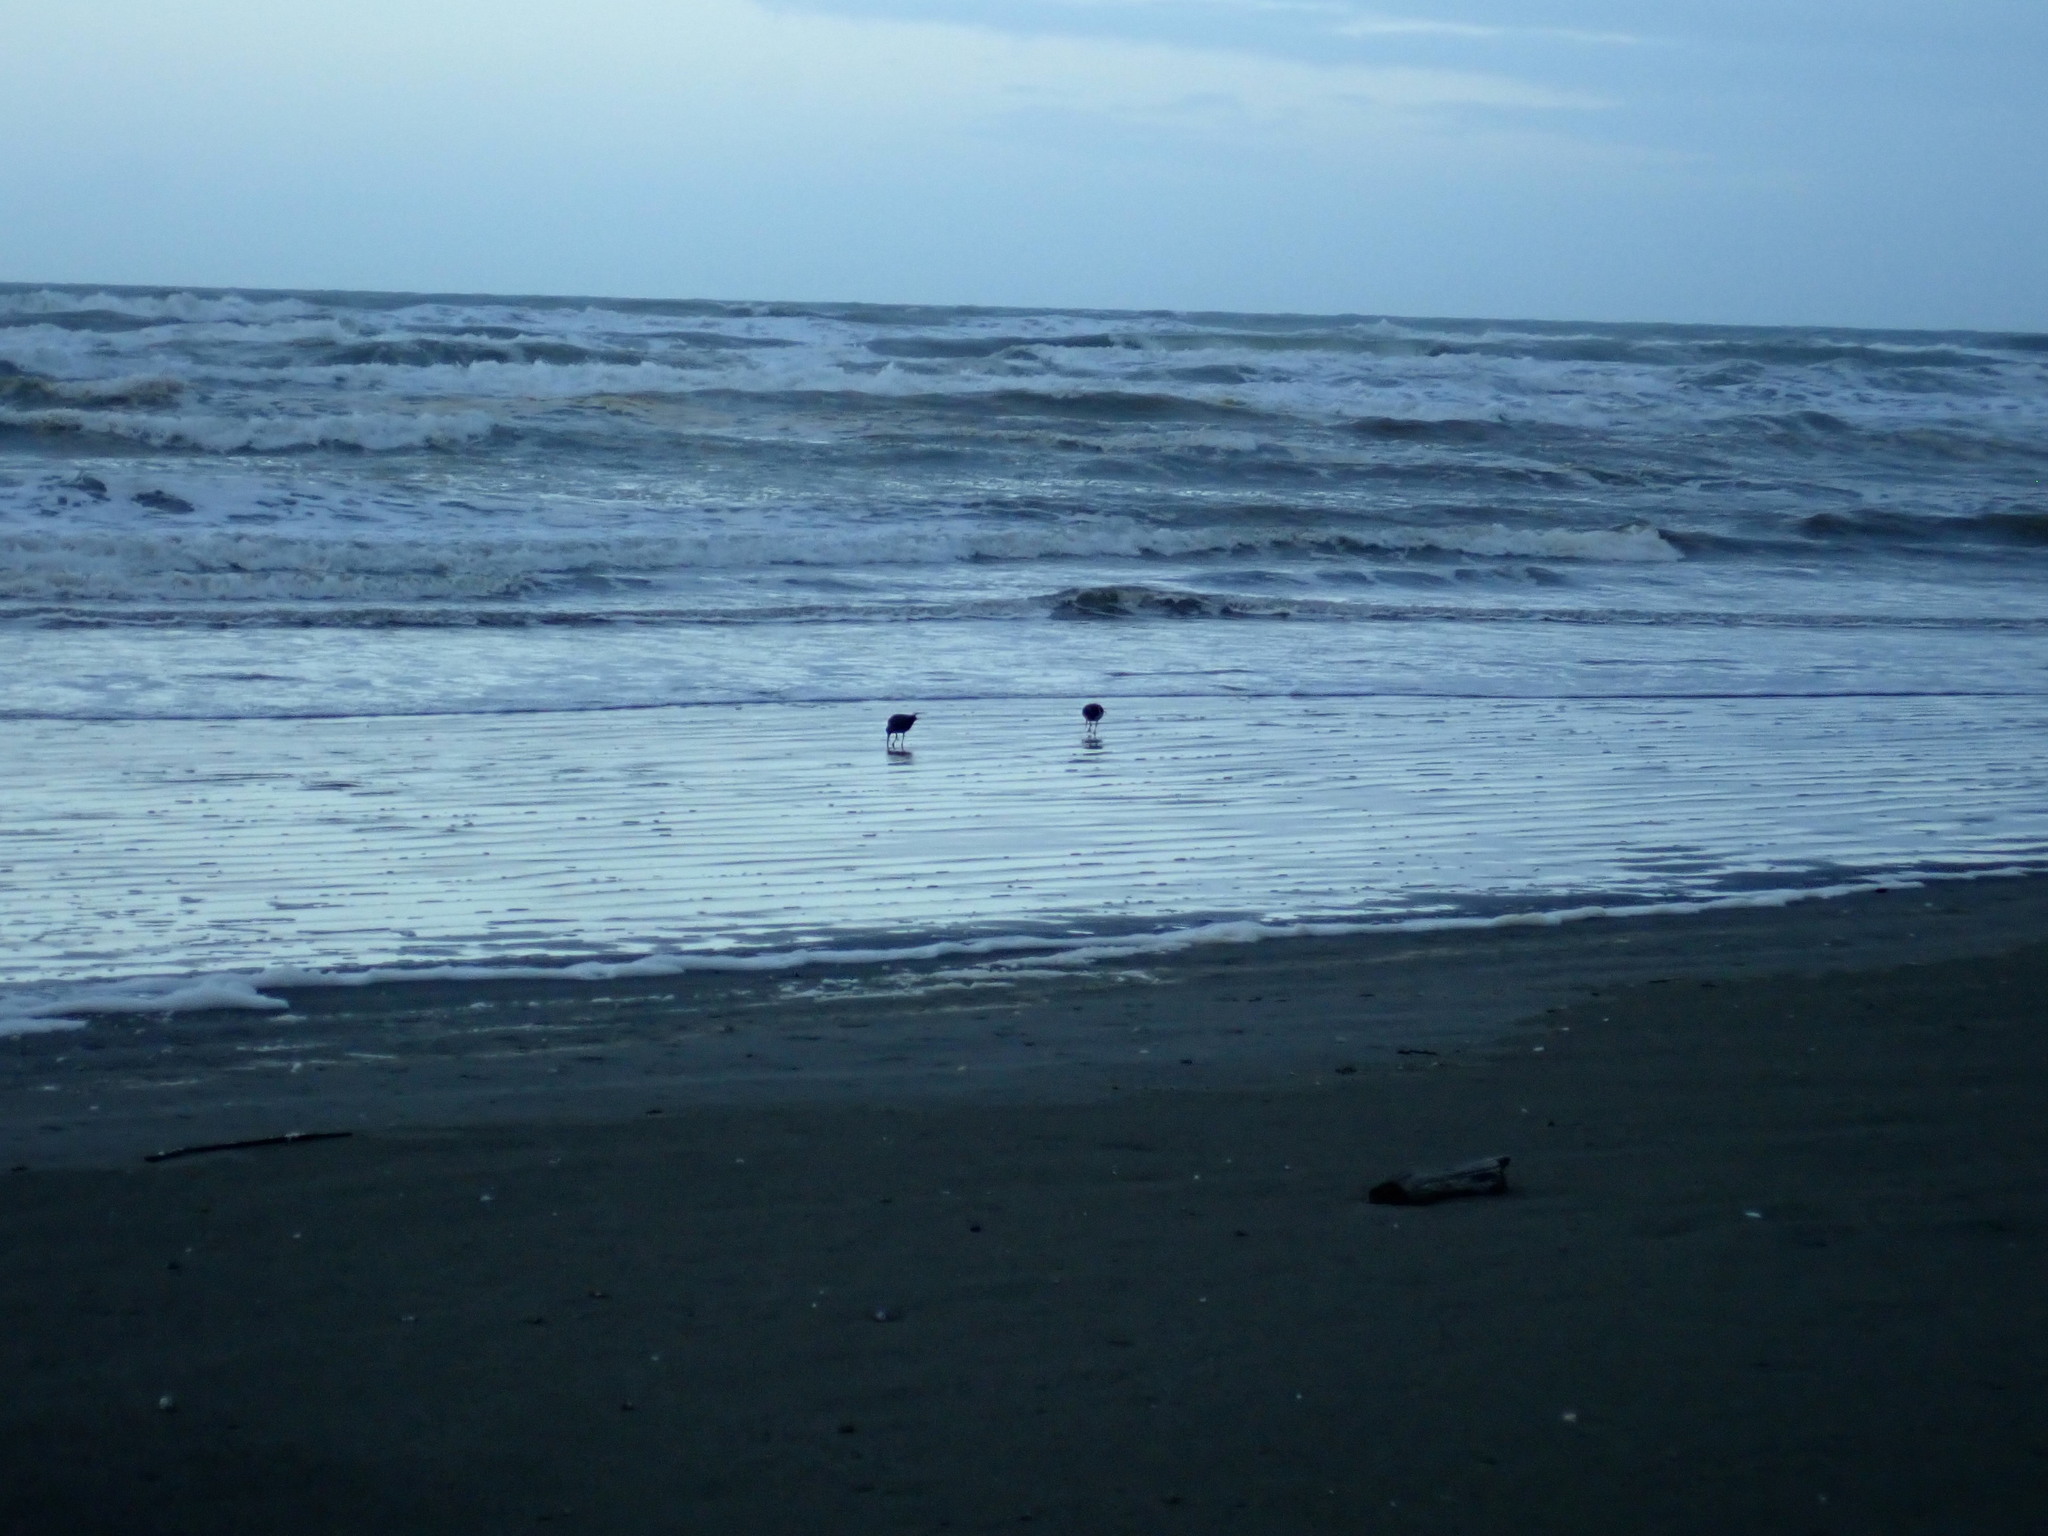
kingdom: Animalia
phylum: Chordata
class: Aves
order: Charadriiformes
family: Haematopodidae
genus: Haematopus
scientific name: Haematopus finschi
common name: South island oystercatcher
